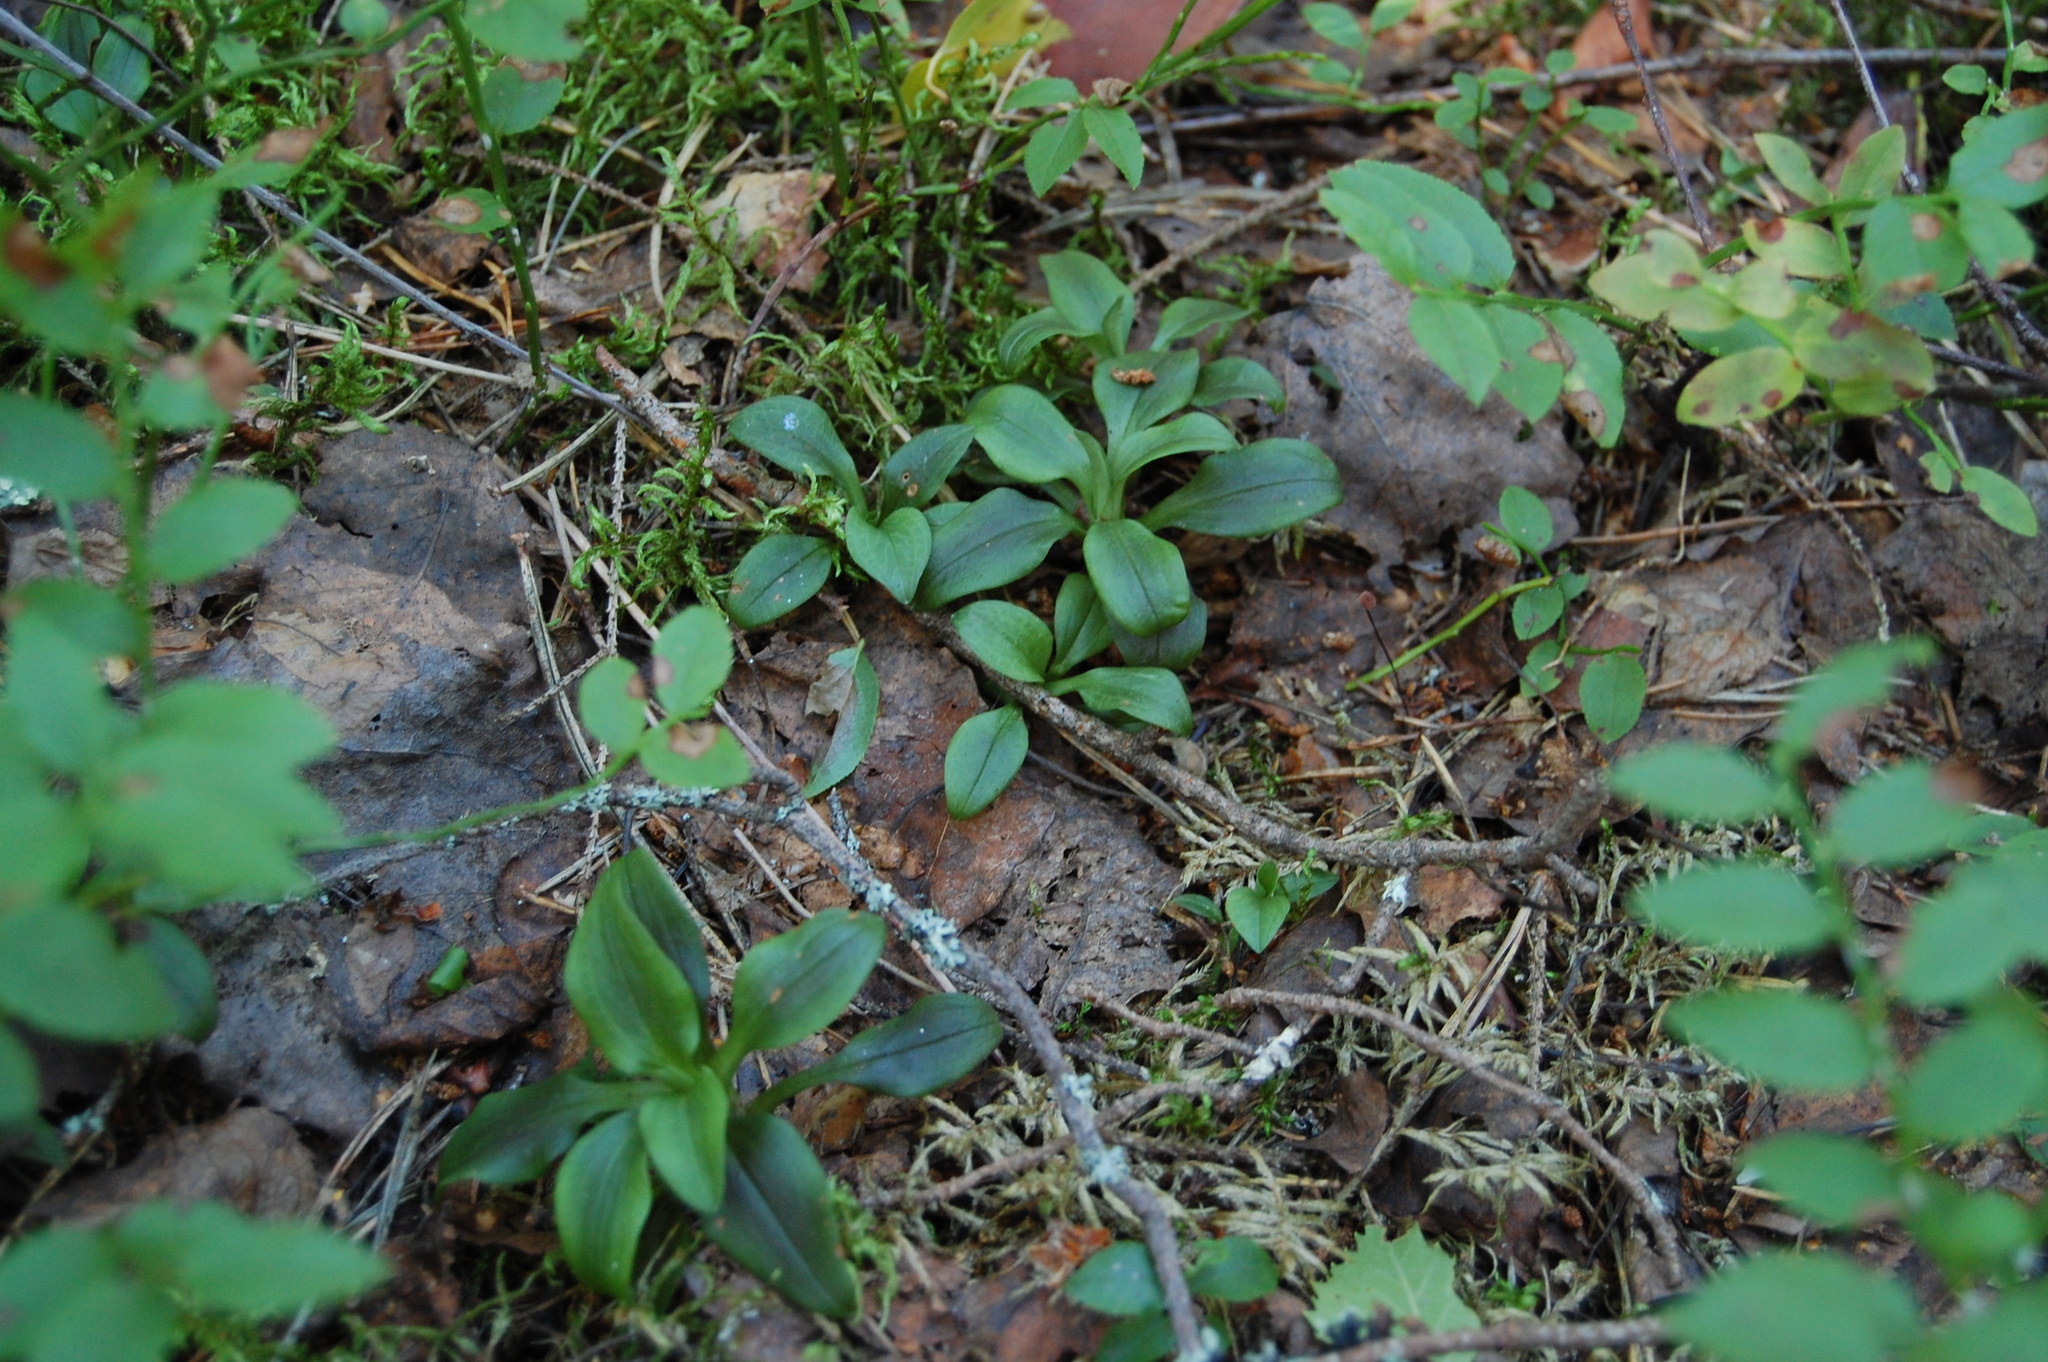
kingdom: Plantae
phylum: Tracheophyta
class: Liliopsida
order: Asparagales
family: Orchidaceae
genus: Goodyera
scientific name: Goodyera repens
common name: Creeping lady's-tresses
